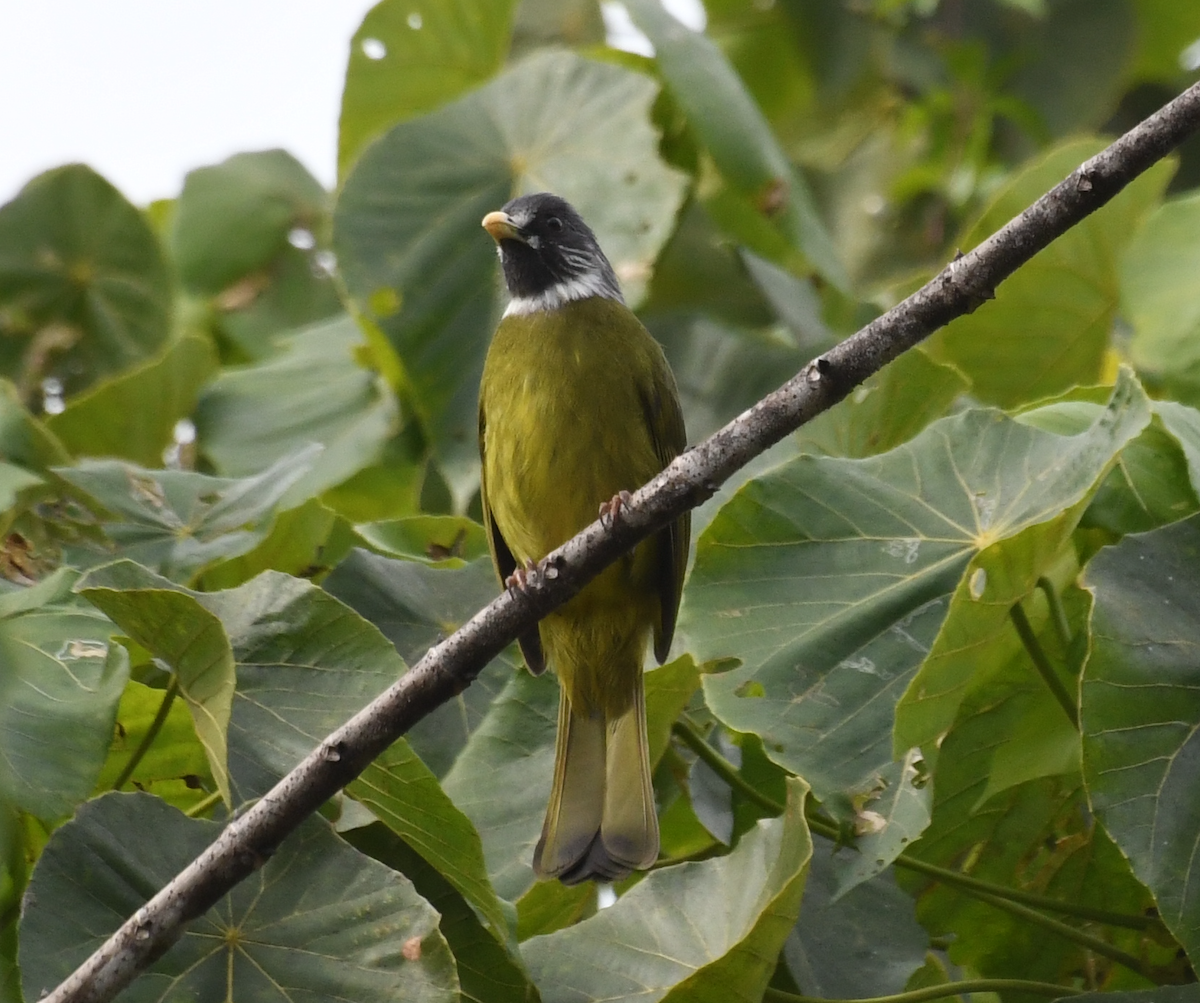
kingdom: Animalia
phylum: Chordata
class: Aves
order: Passeriformes
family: Pycnonotidae
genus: Spizixos
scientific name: Spizixos semitorques
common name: Collared finchbill
